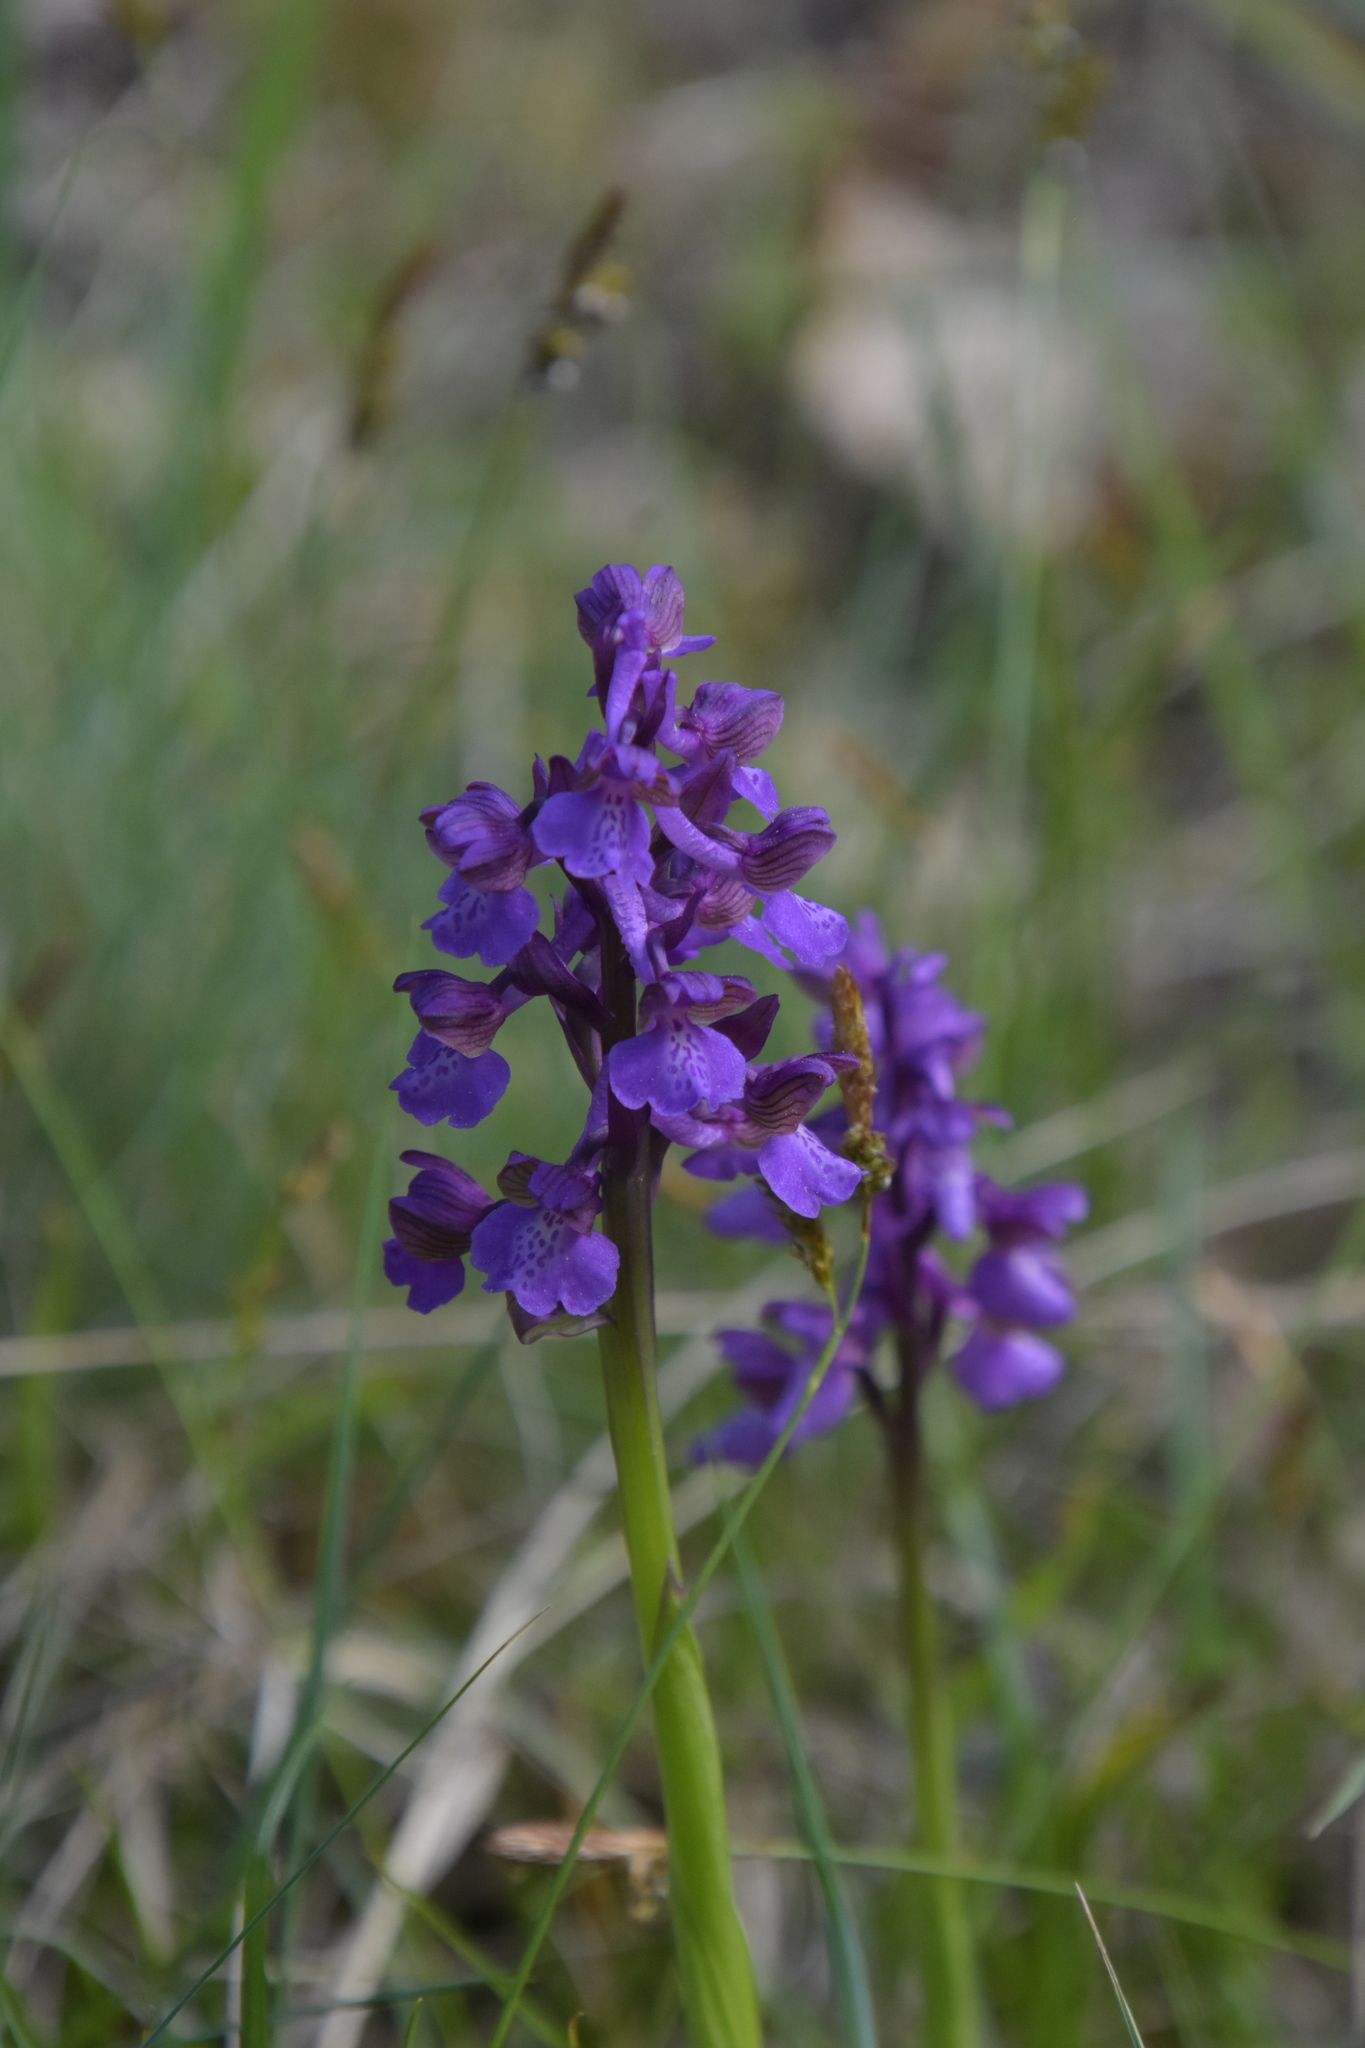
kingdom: Plantae
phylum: Tracheophyta
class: Liliopsida
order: Asparagales
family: Orchidaceae
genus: Anacamptis
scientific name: Anacamptis morio
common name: Green-winged orchid
